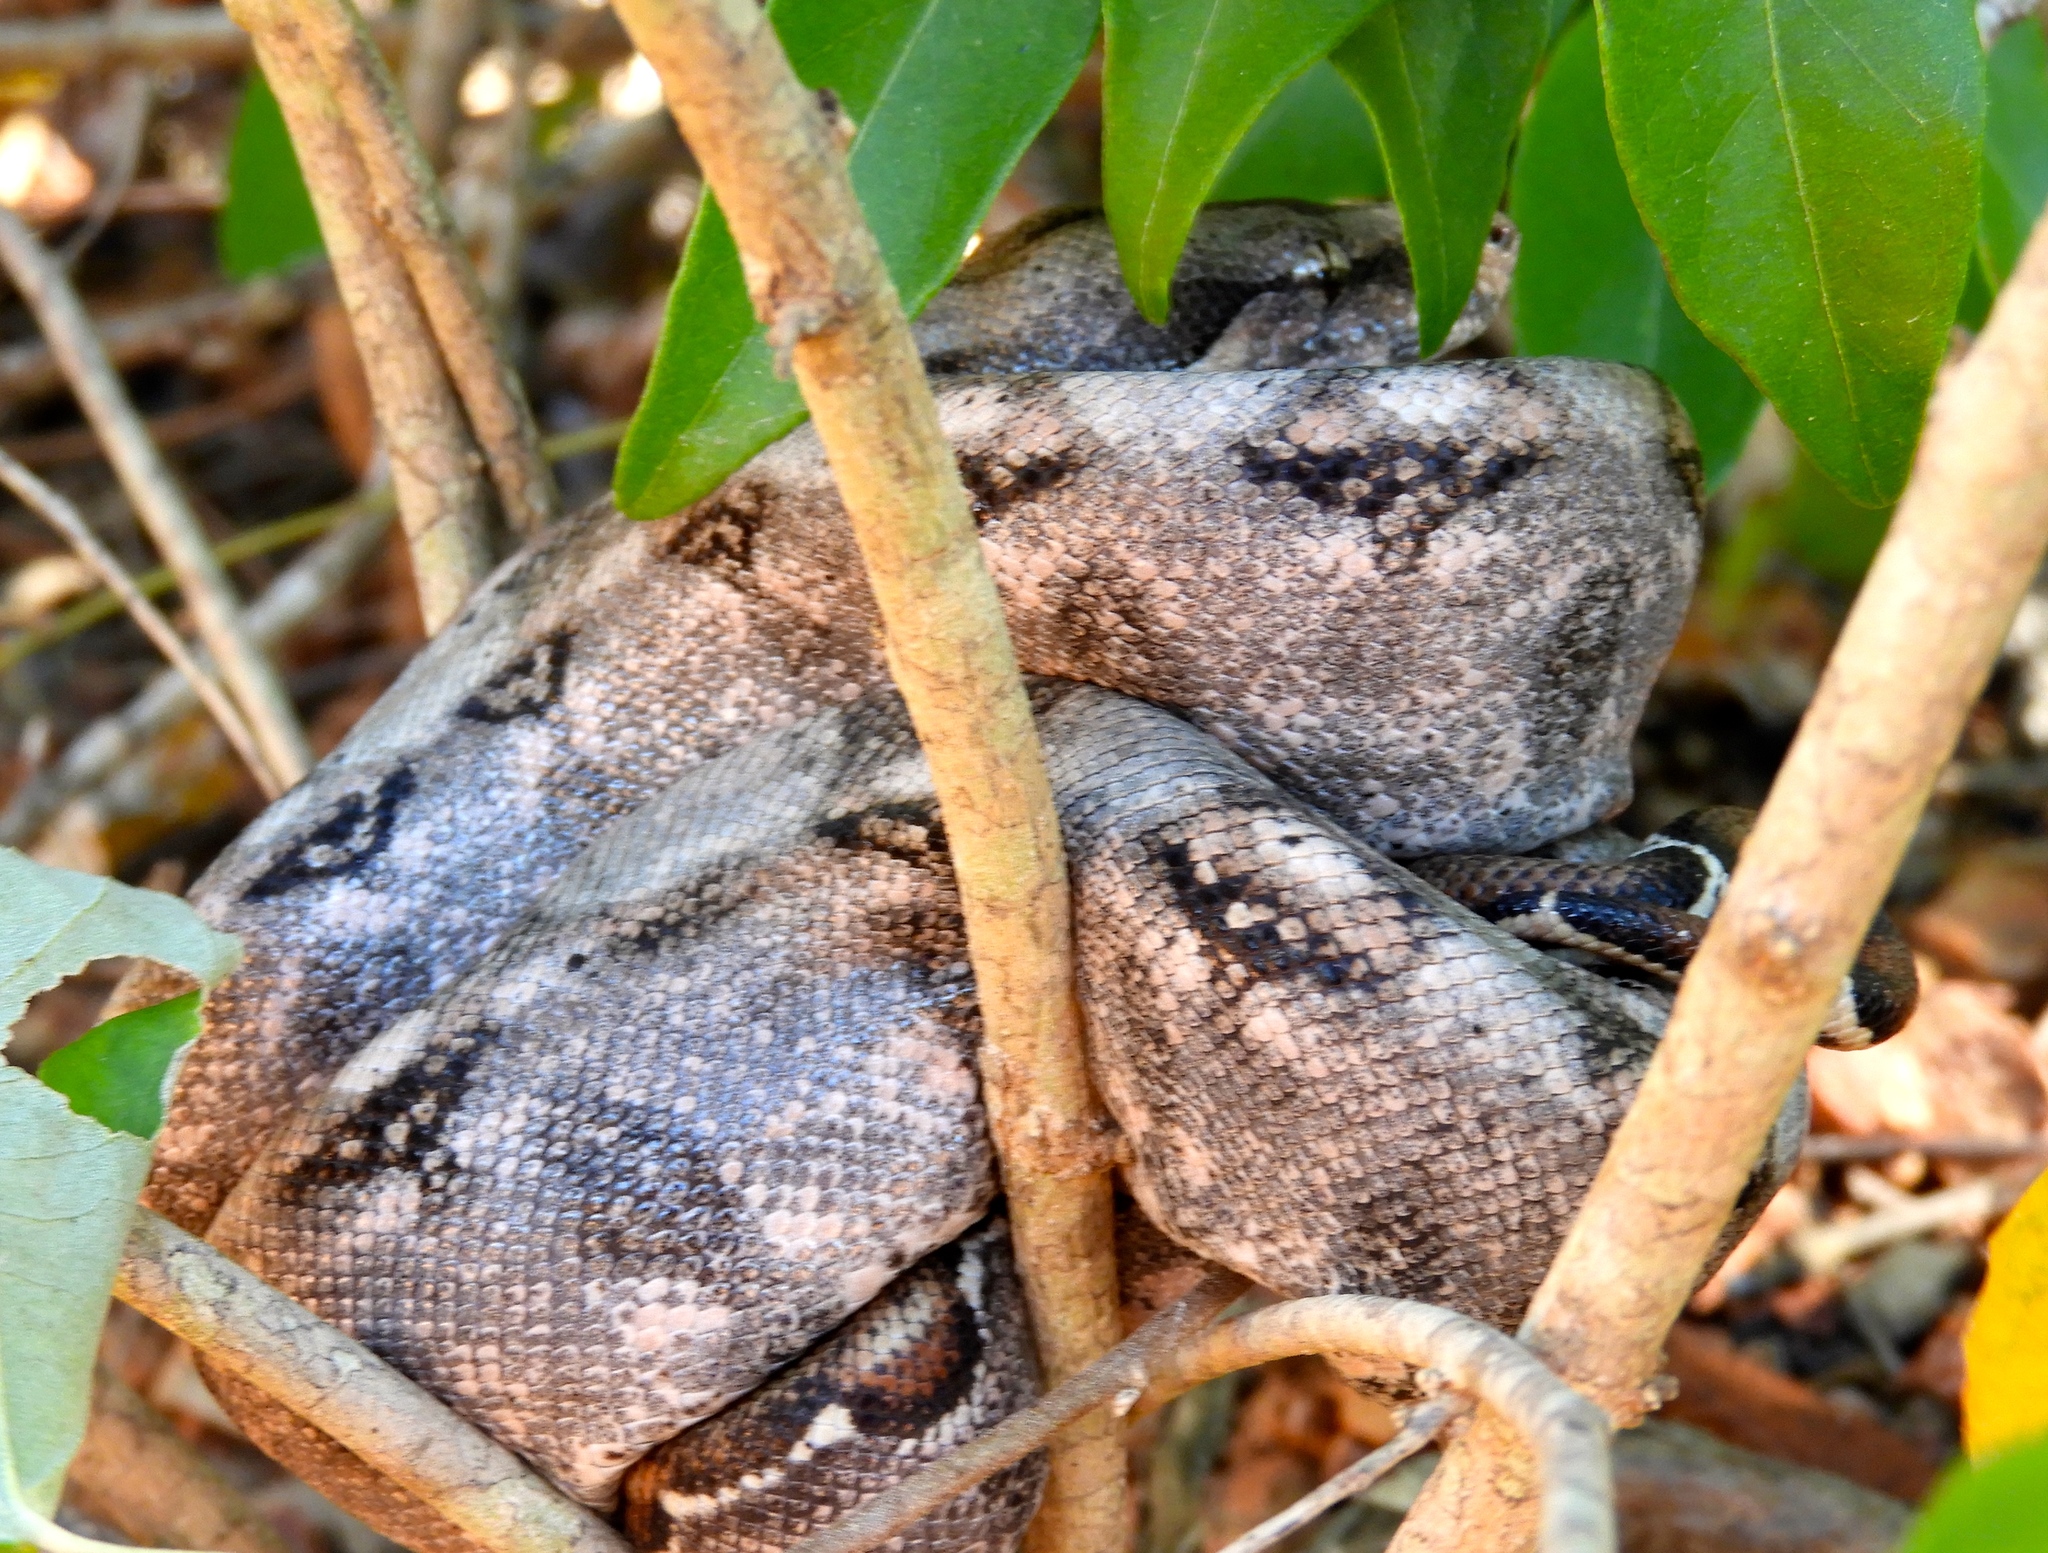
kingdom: Animalia
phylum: Chordata
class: Squamata
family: Boidae
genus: Boa
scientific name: Boa
